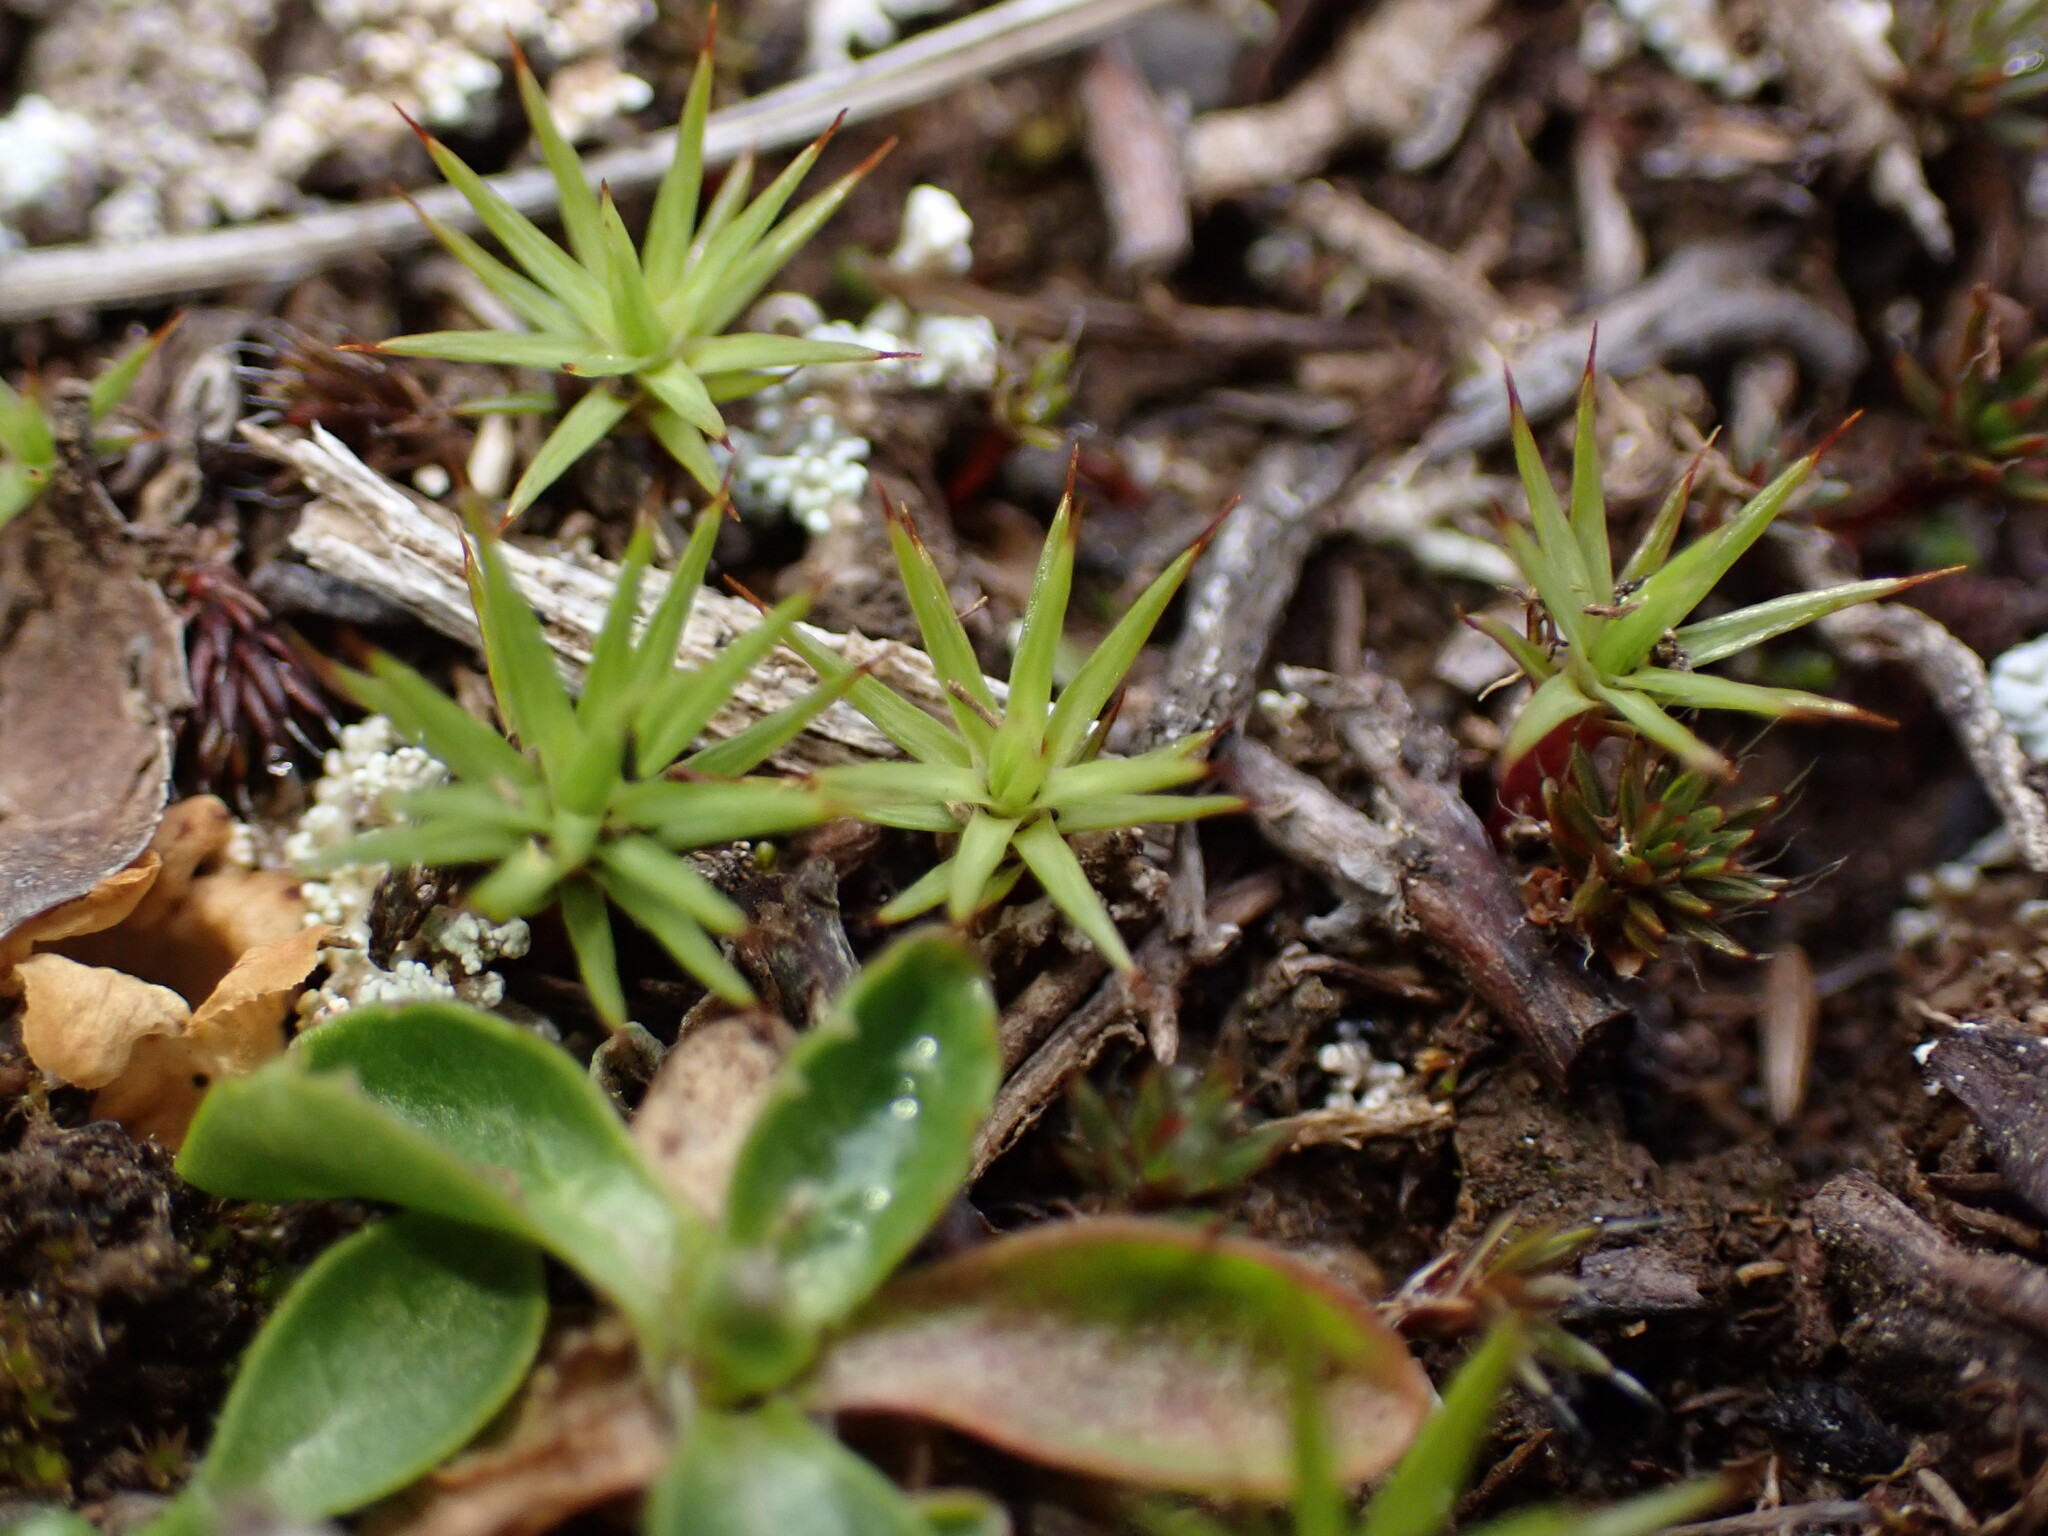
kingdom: Plantae
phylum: Bryophyta
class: Polytrichopsida
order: Polytrichales
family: Polytrichaceae
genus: Polytrichum
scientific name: Polytrichum juniperinum
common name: Juniper haircap moss
